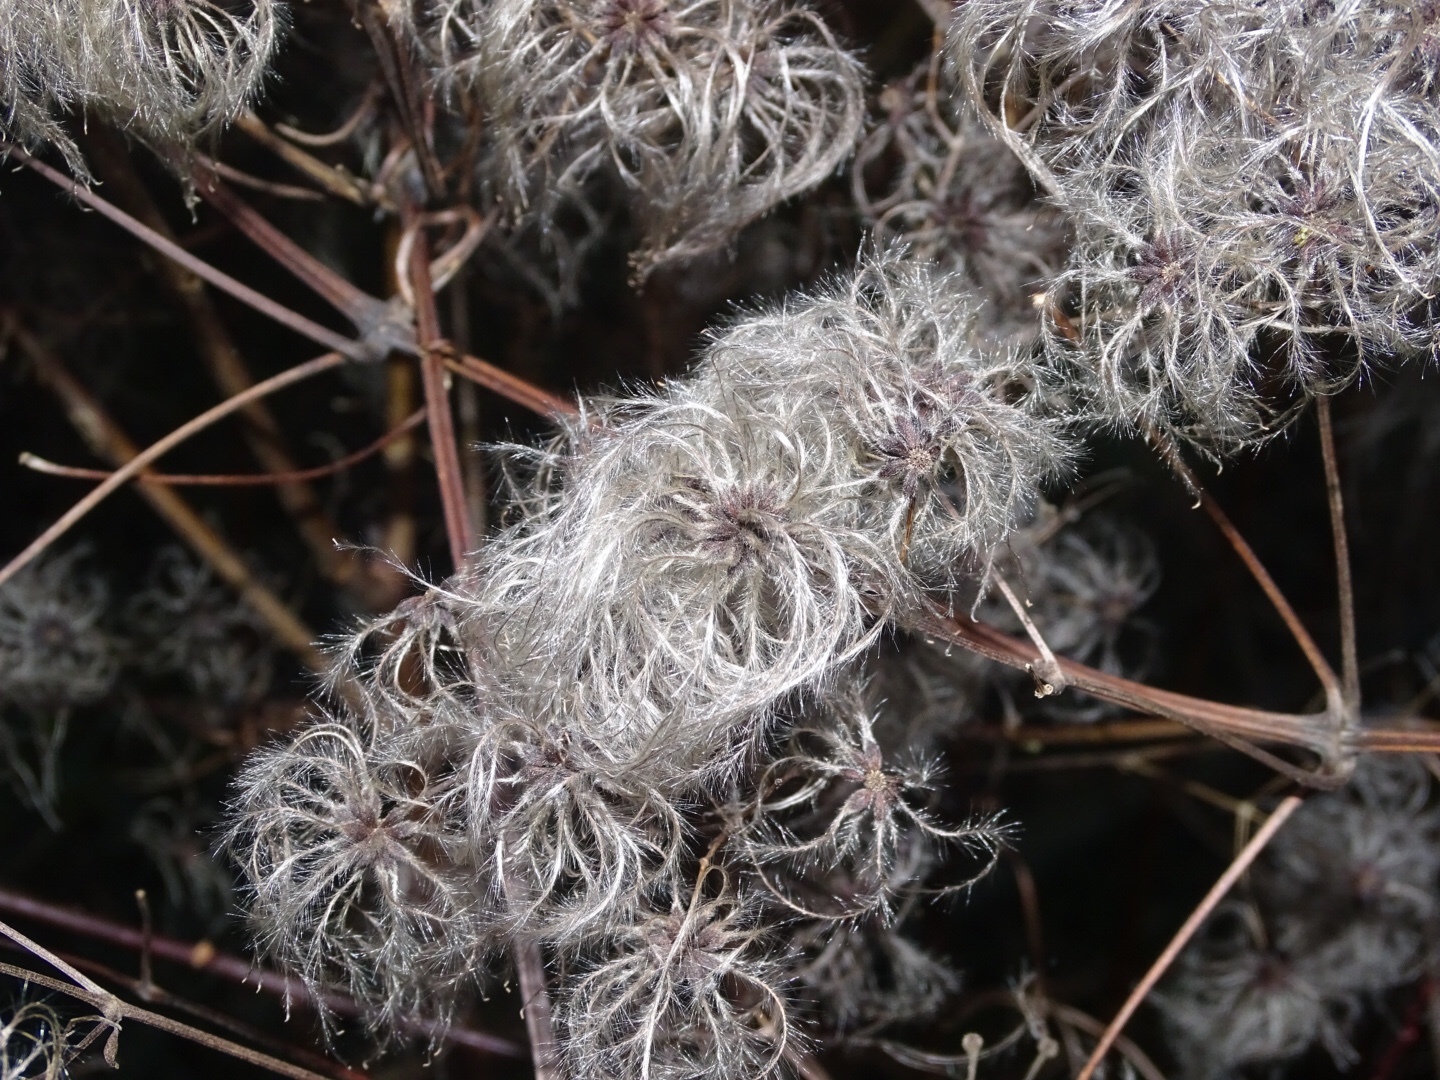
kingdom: Plantae
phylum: Tracheophyta
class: Magnoliopsida
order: Ranunculales
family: Ranunculaceae
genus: Clematis
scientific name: Clematis vitalba
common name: Evergreen clematis
